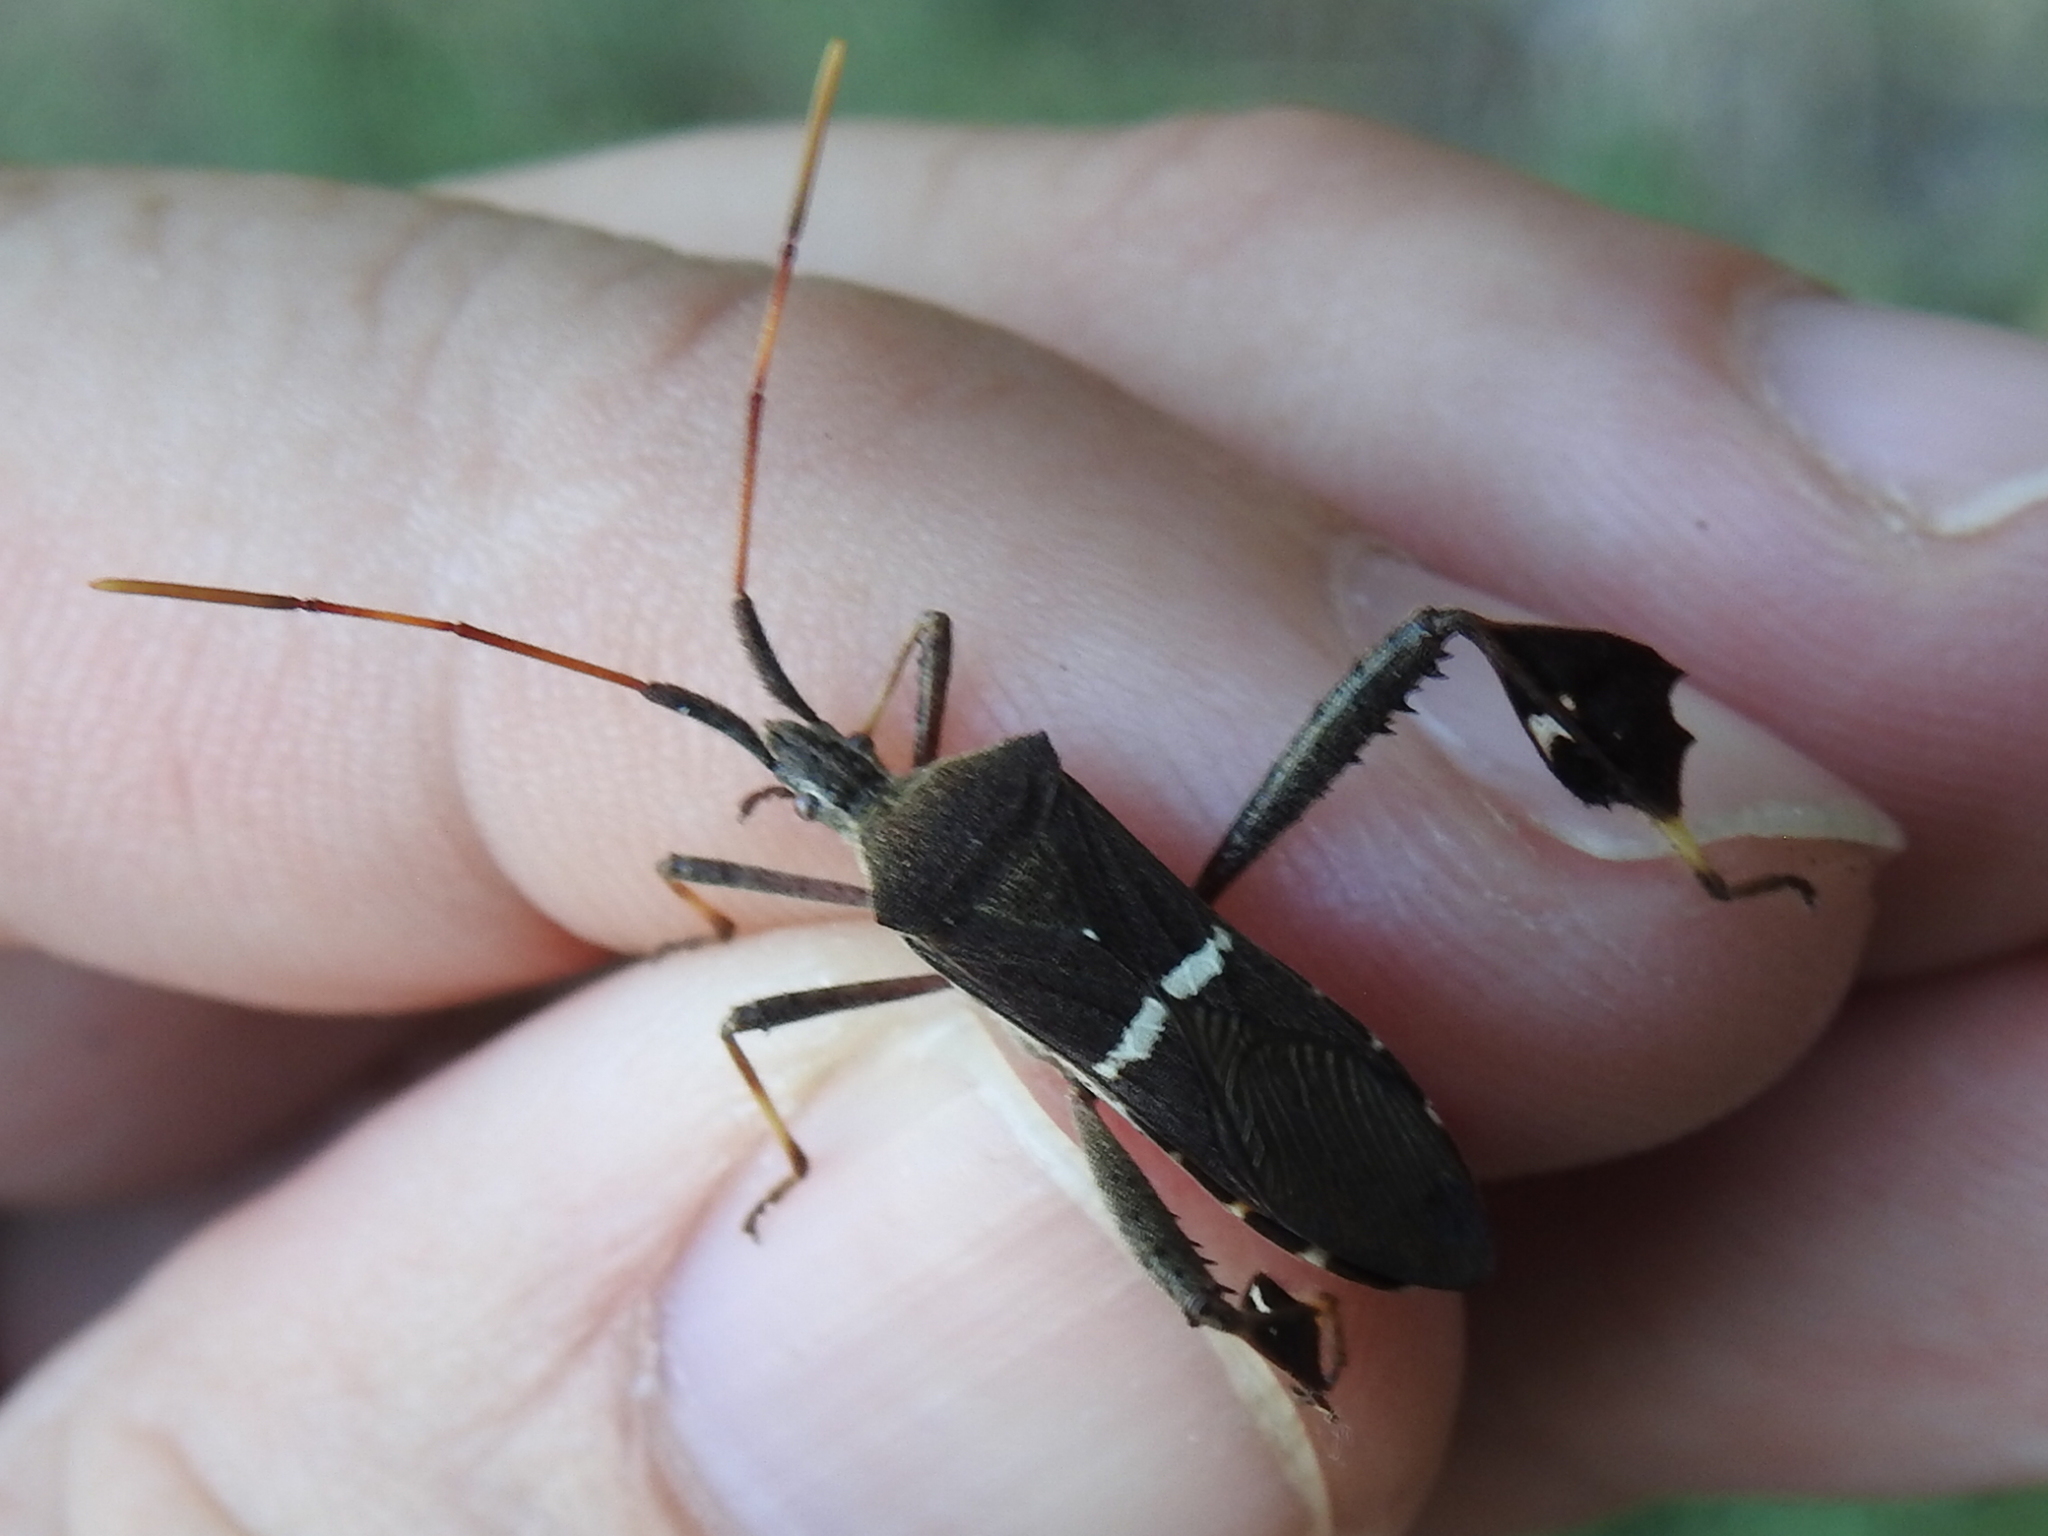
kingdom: Animalia
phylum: Arthropoda
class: Insecta
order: Hemiptera
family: Coreidae
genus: Leptoglossus
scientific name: Leptoglossus phyllopus
